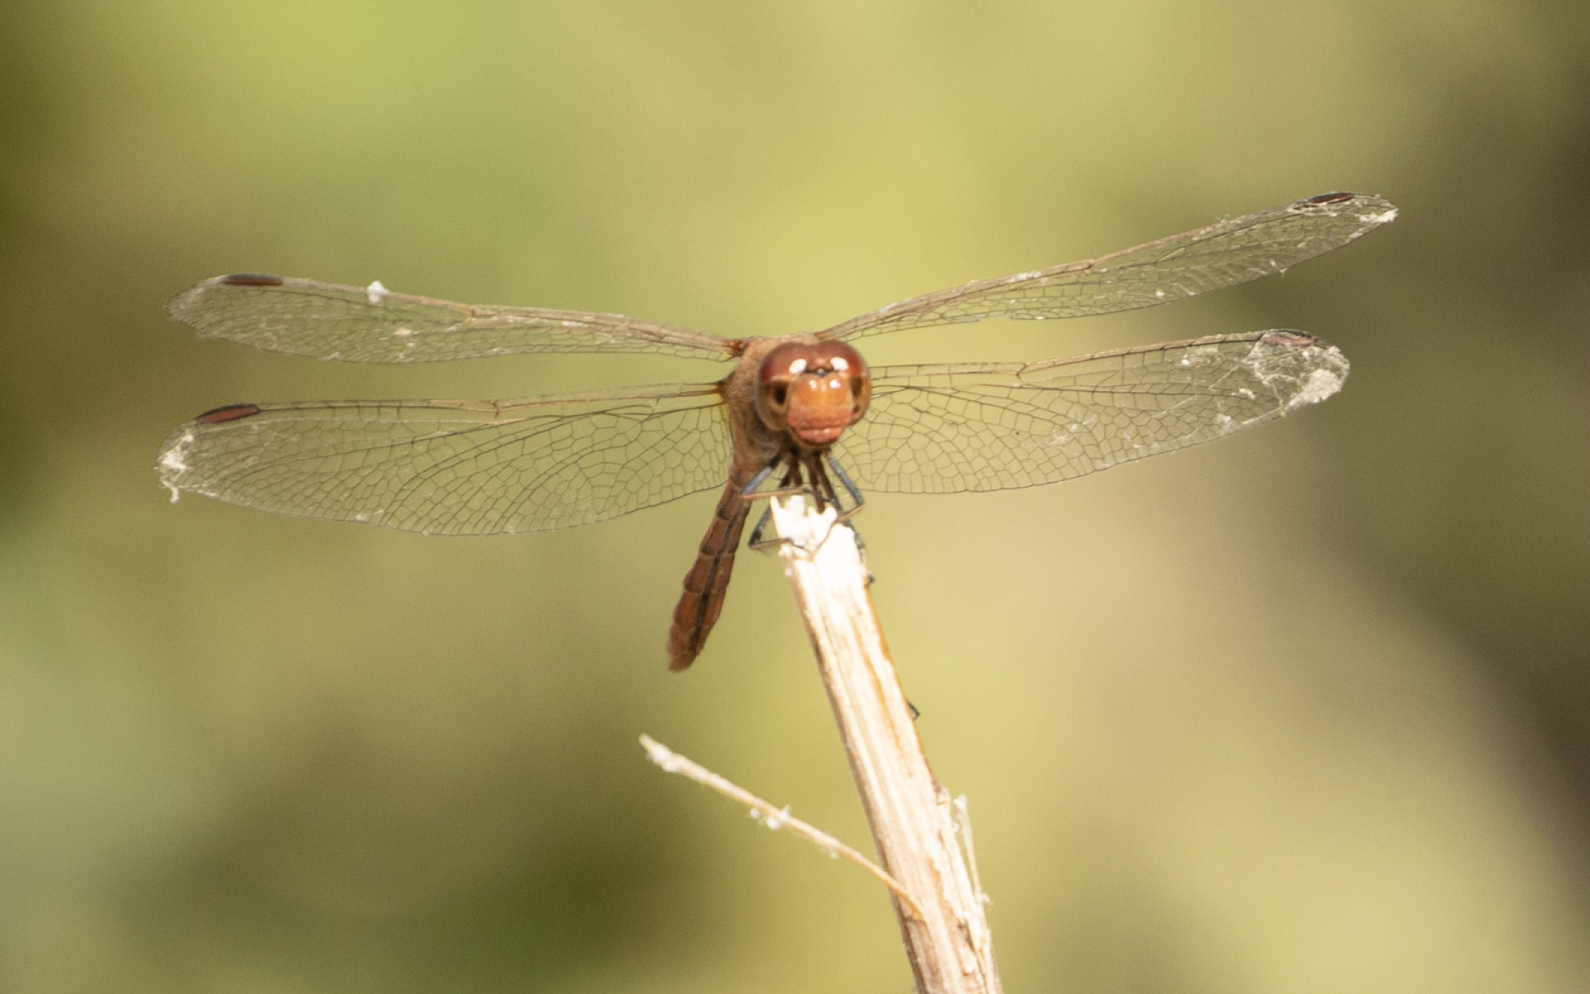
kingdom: Animalia
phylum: Arthropoda
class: Insecta
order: Odonata
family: Libellulidae
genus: Sympetrum
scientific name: Sympetrum meridionale
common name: Southern darter
